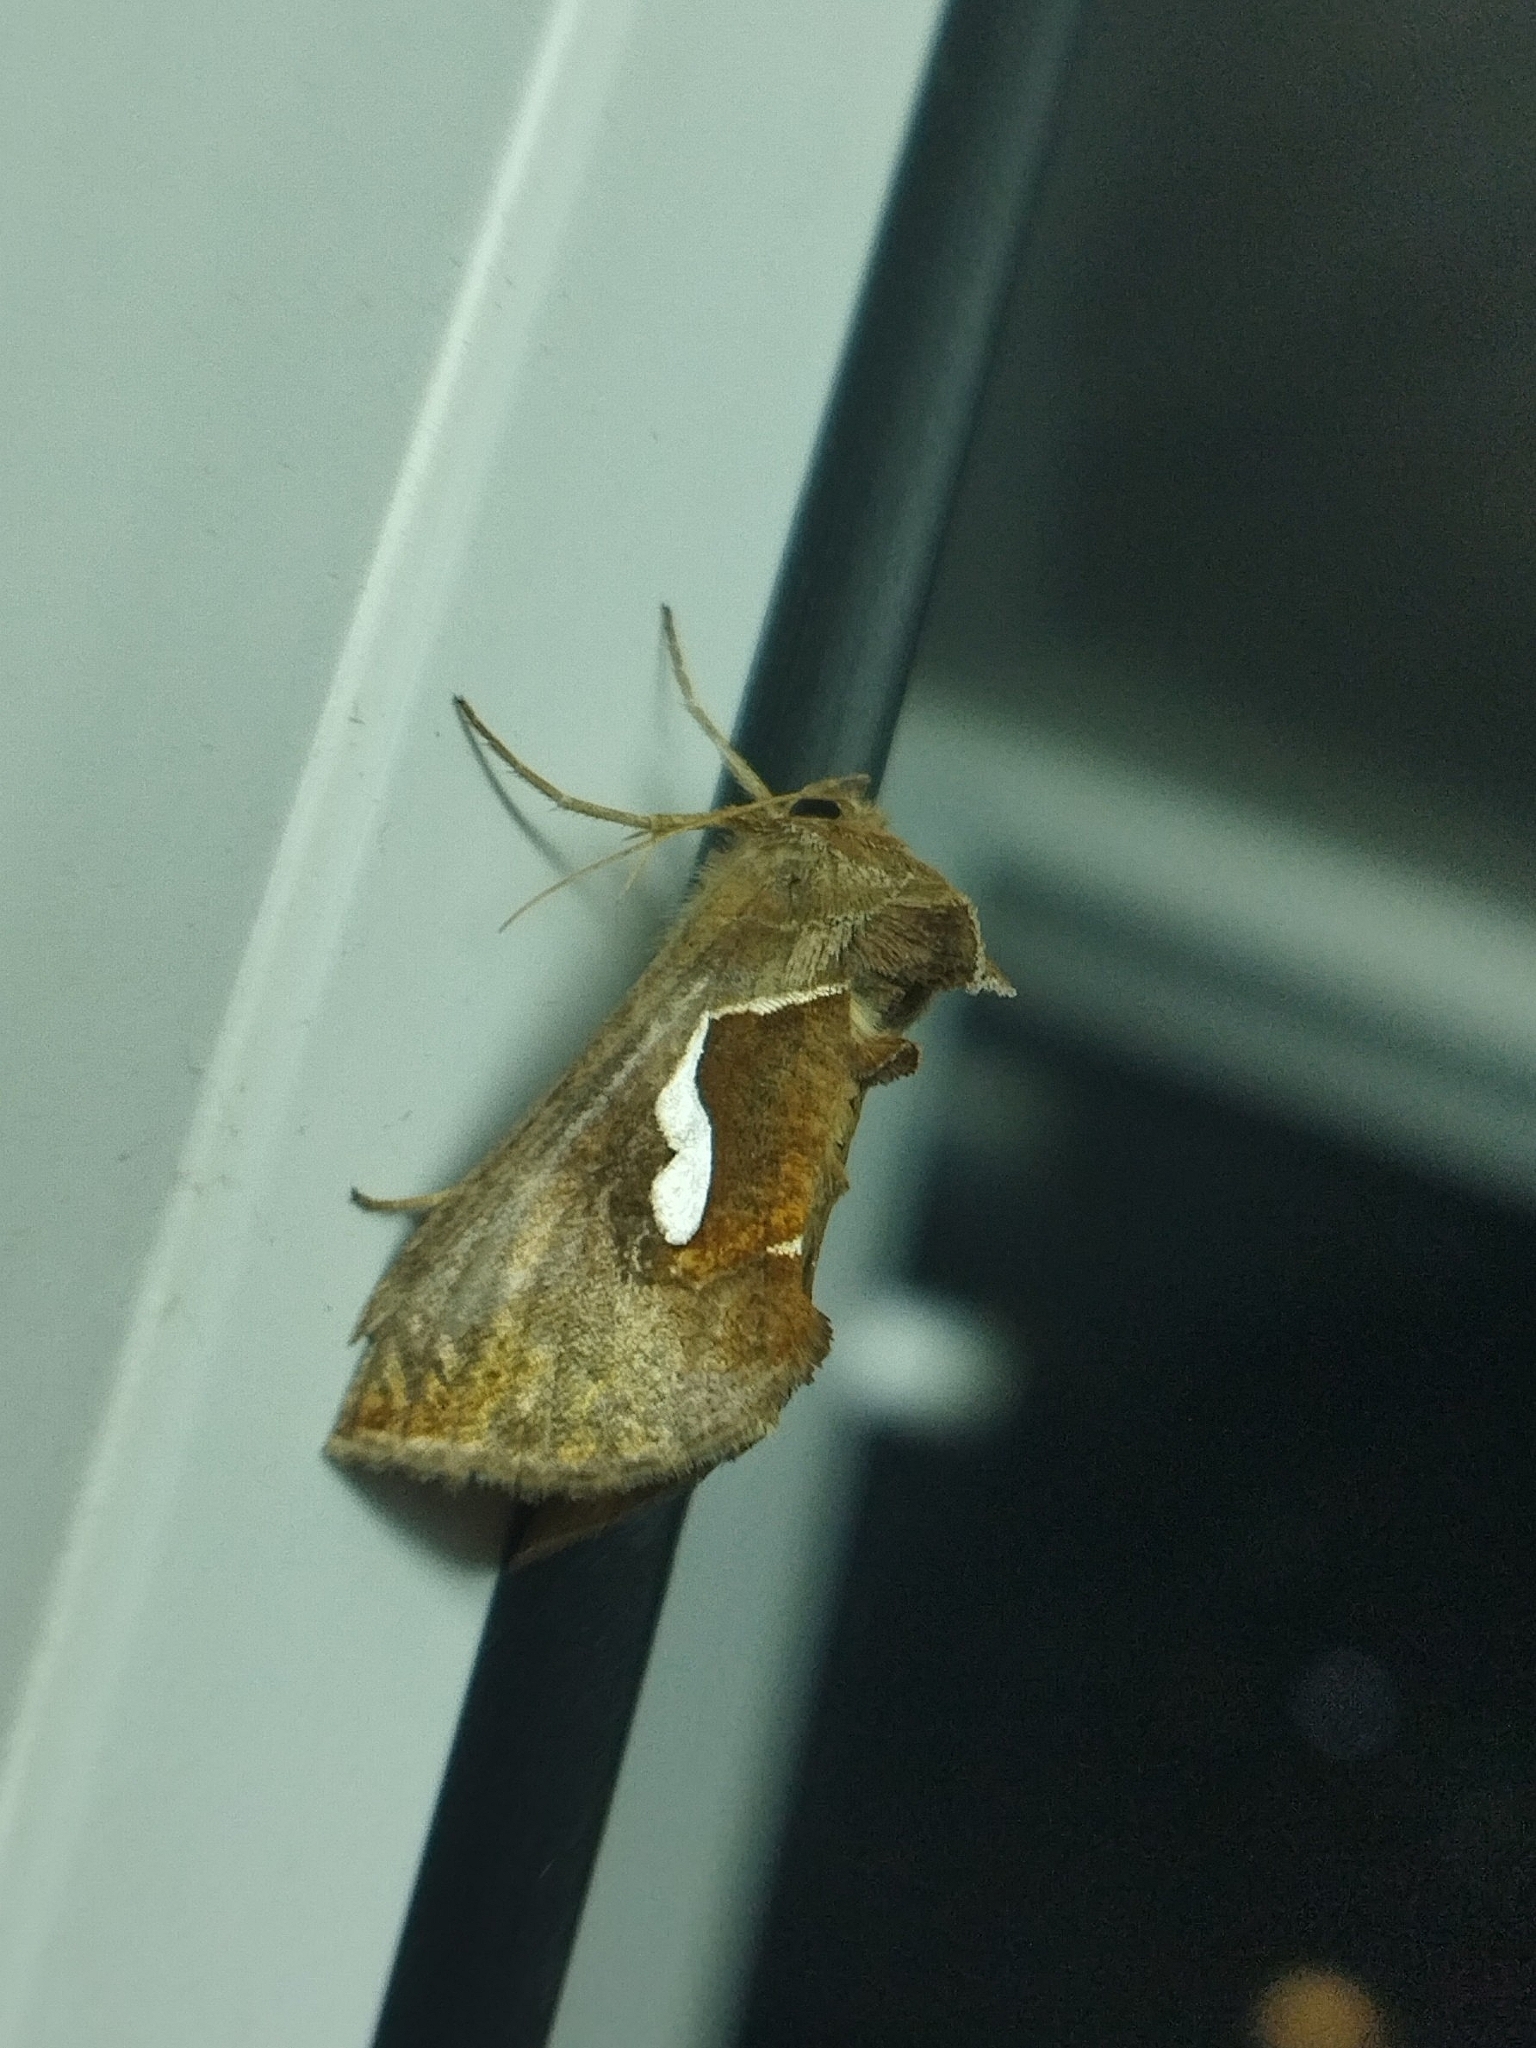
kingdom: Animalia
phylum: Arthropoda
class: Insecta
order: Lepidoptera
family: Noctuidae
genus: Macdunnoughia
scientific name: Macdunnoughia confusa
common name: Dewick's plusia
